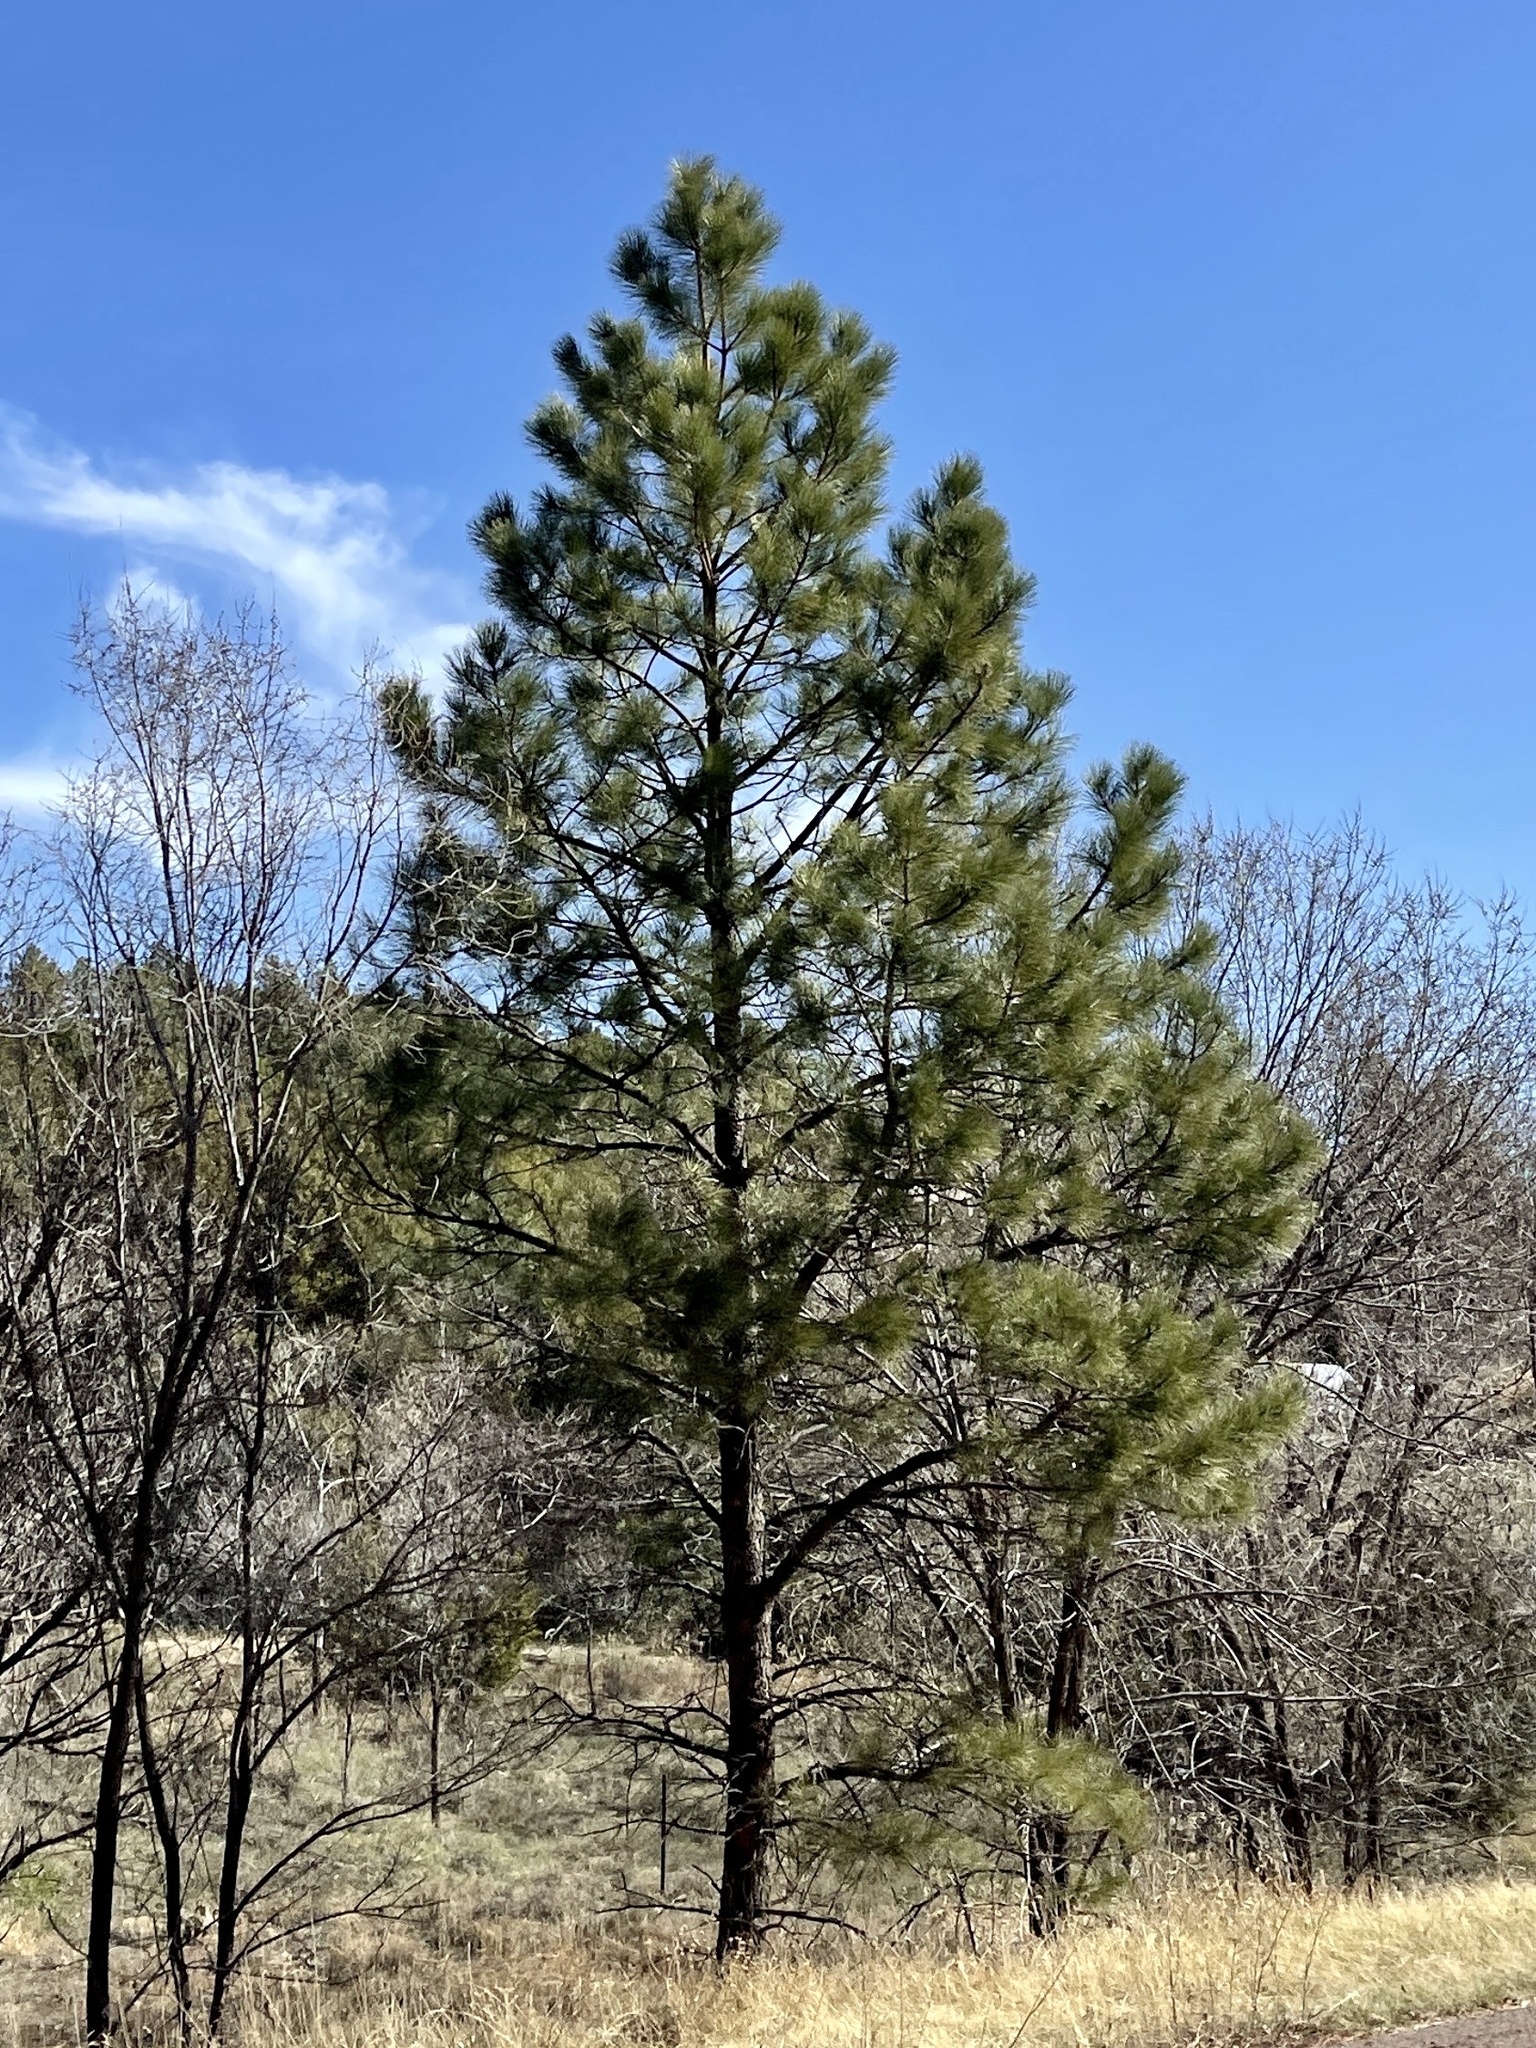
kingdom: Plantae
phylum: Tracheophyta
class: Pinopsida
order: Pinales
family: Pinaceae
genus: Pinus
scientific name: Pinus ponderosa
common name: Western yellow-pine
